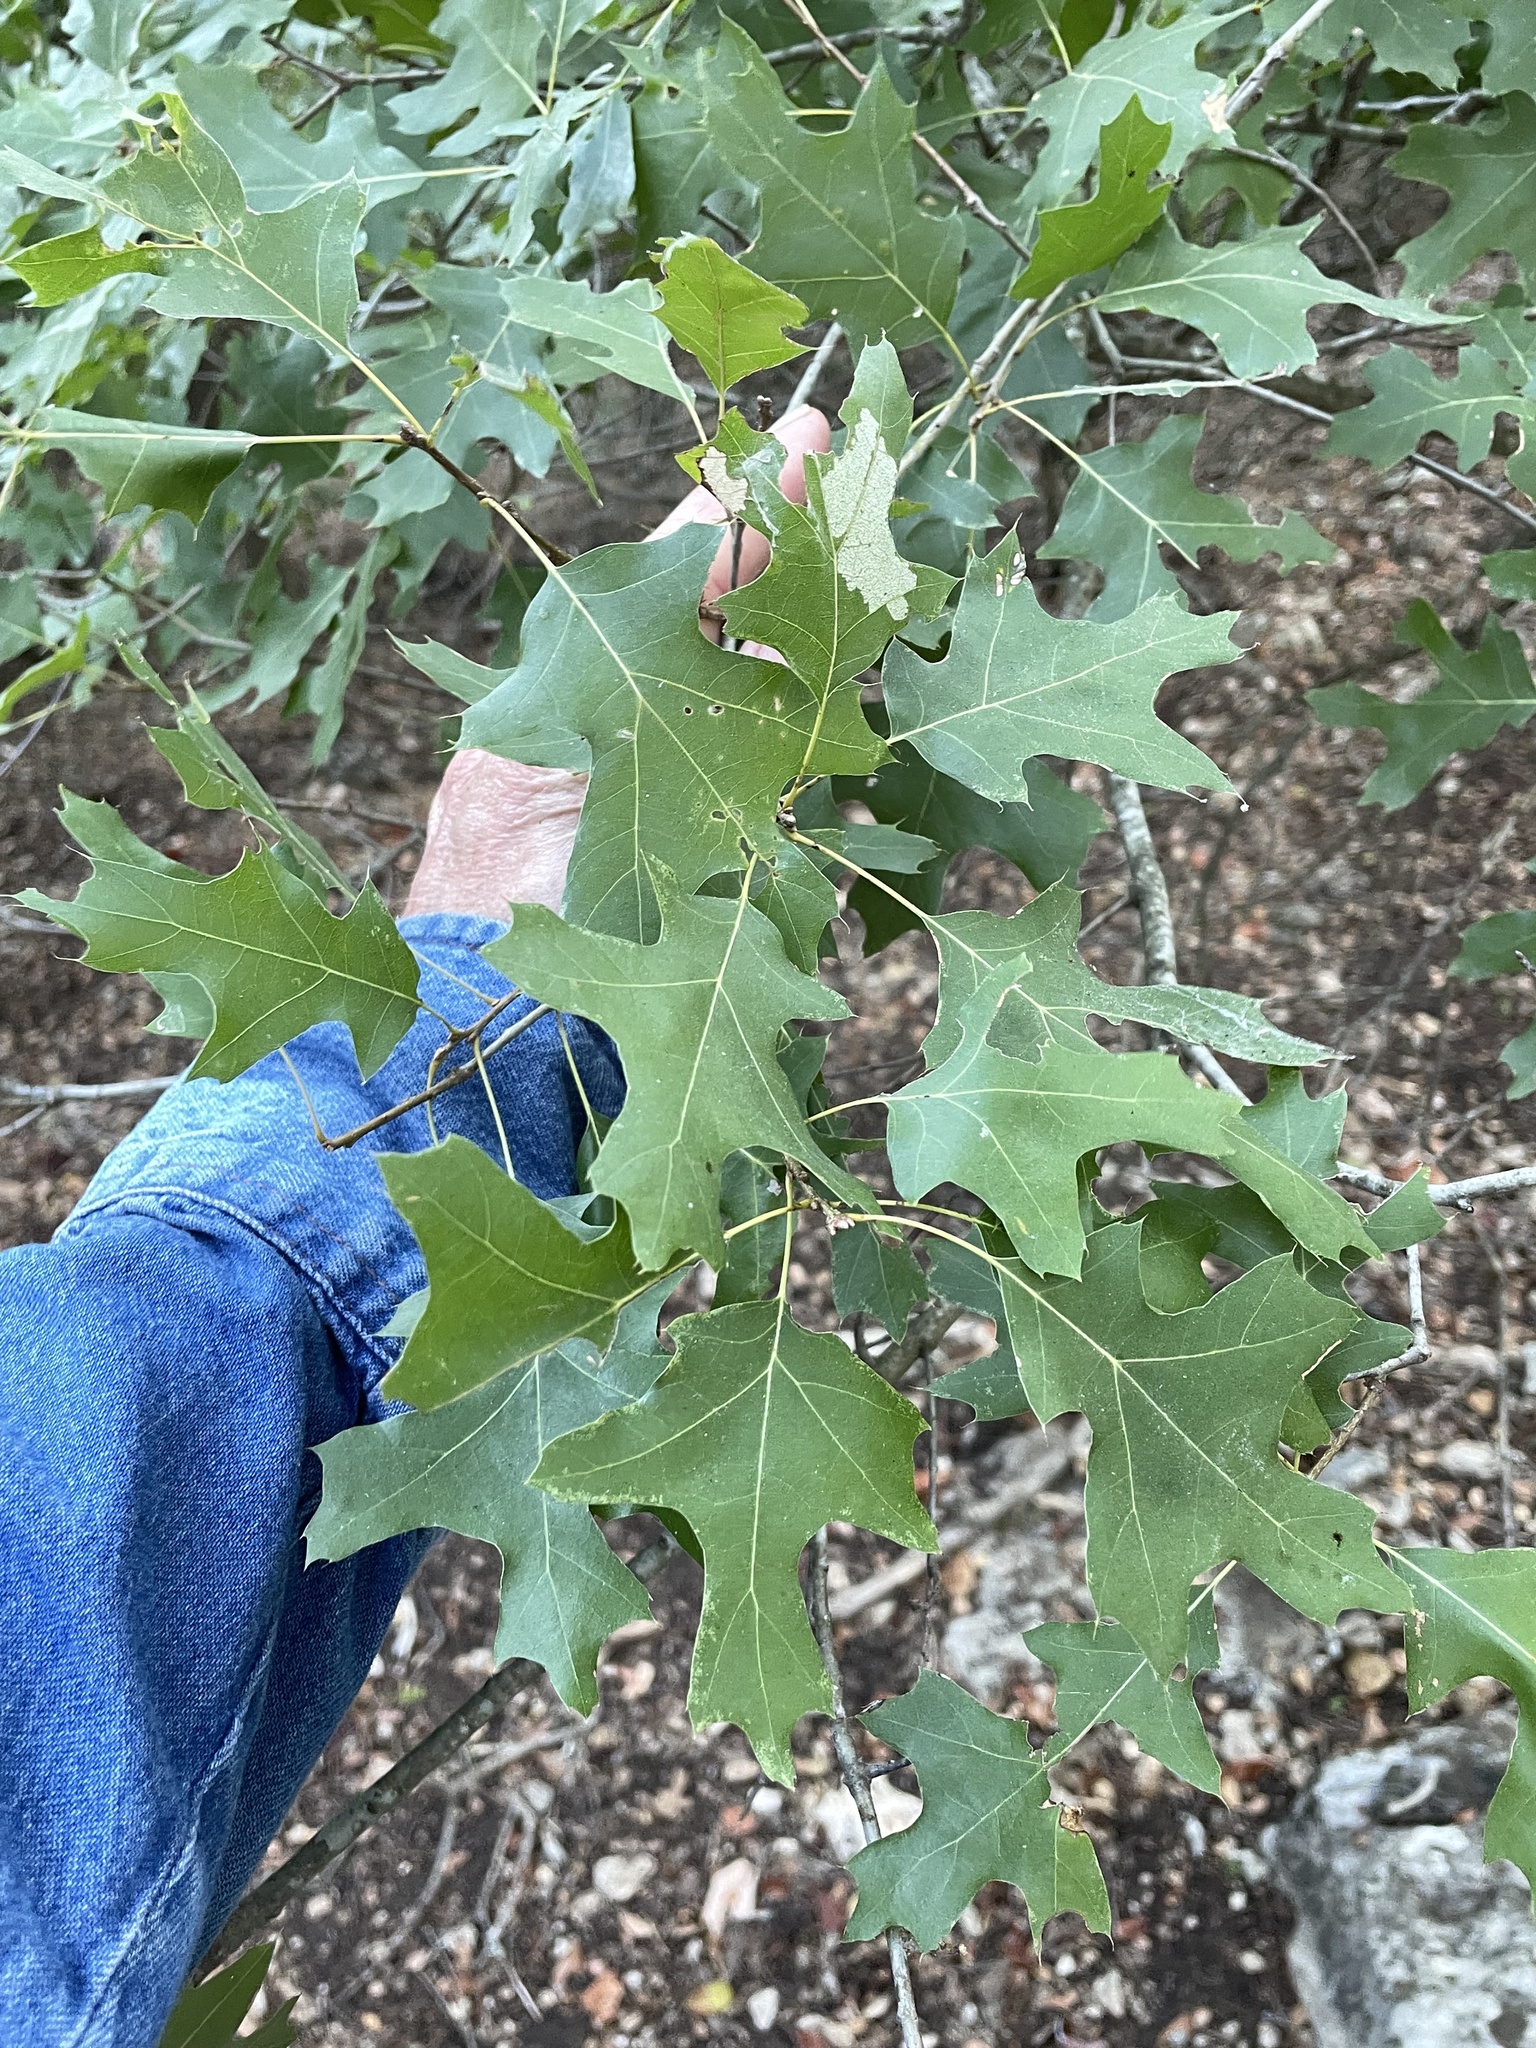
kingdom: Plantae
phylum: Tracheophyta
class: Magnoliopsida
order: Fagales
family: Fagaceae
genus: Quercus
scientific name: Quercus buckleyi
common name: Buckley oak
